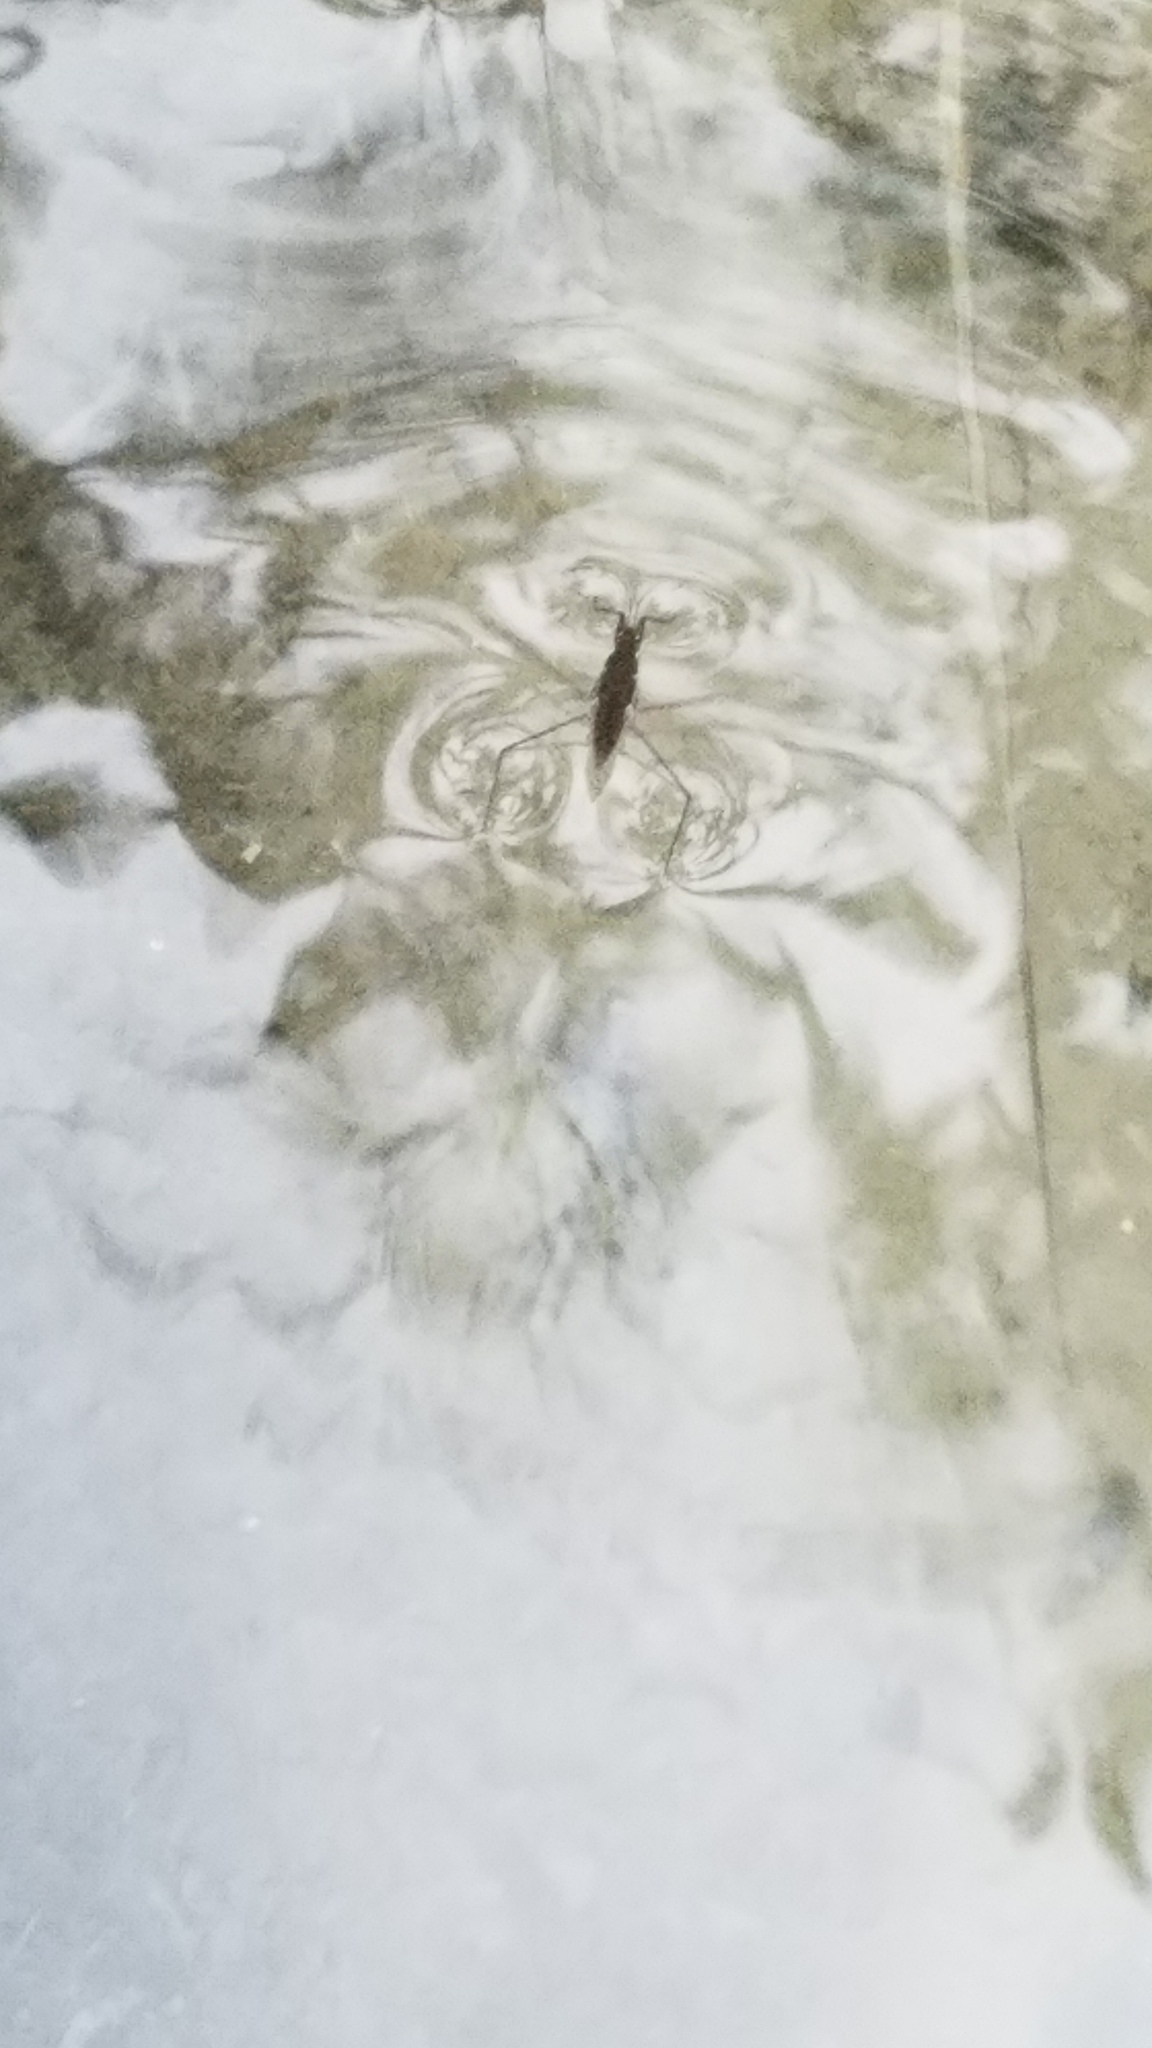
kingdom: Animalia
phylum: Arthropoda
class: Insecta
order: Hemiptera
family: Gerridae
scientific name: Gerridae
